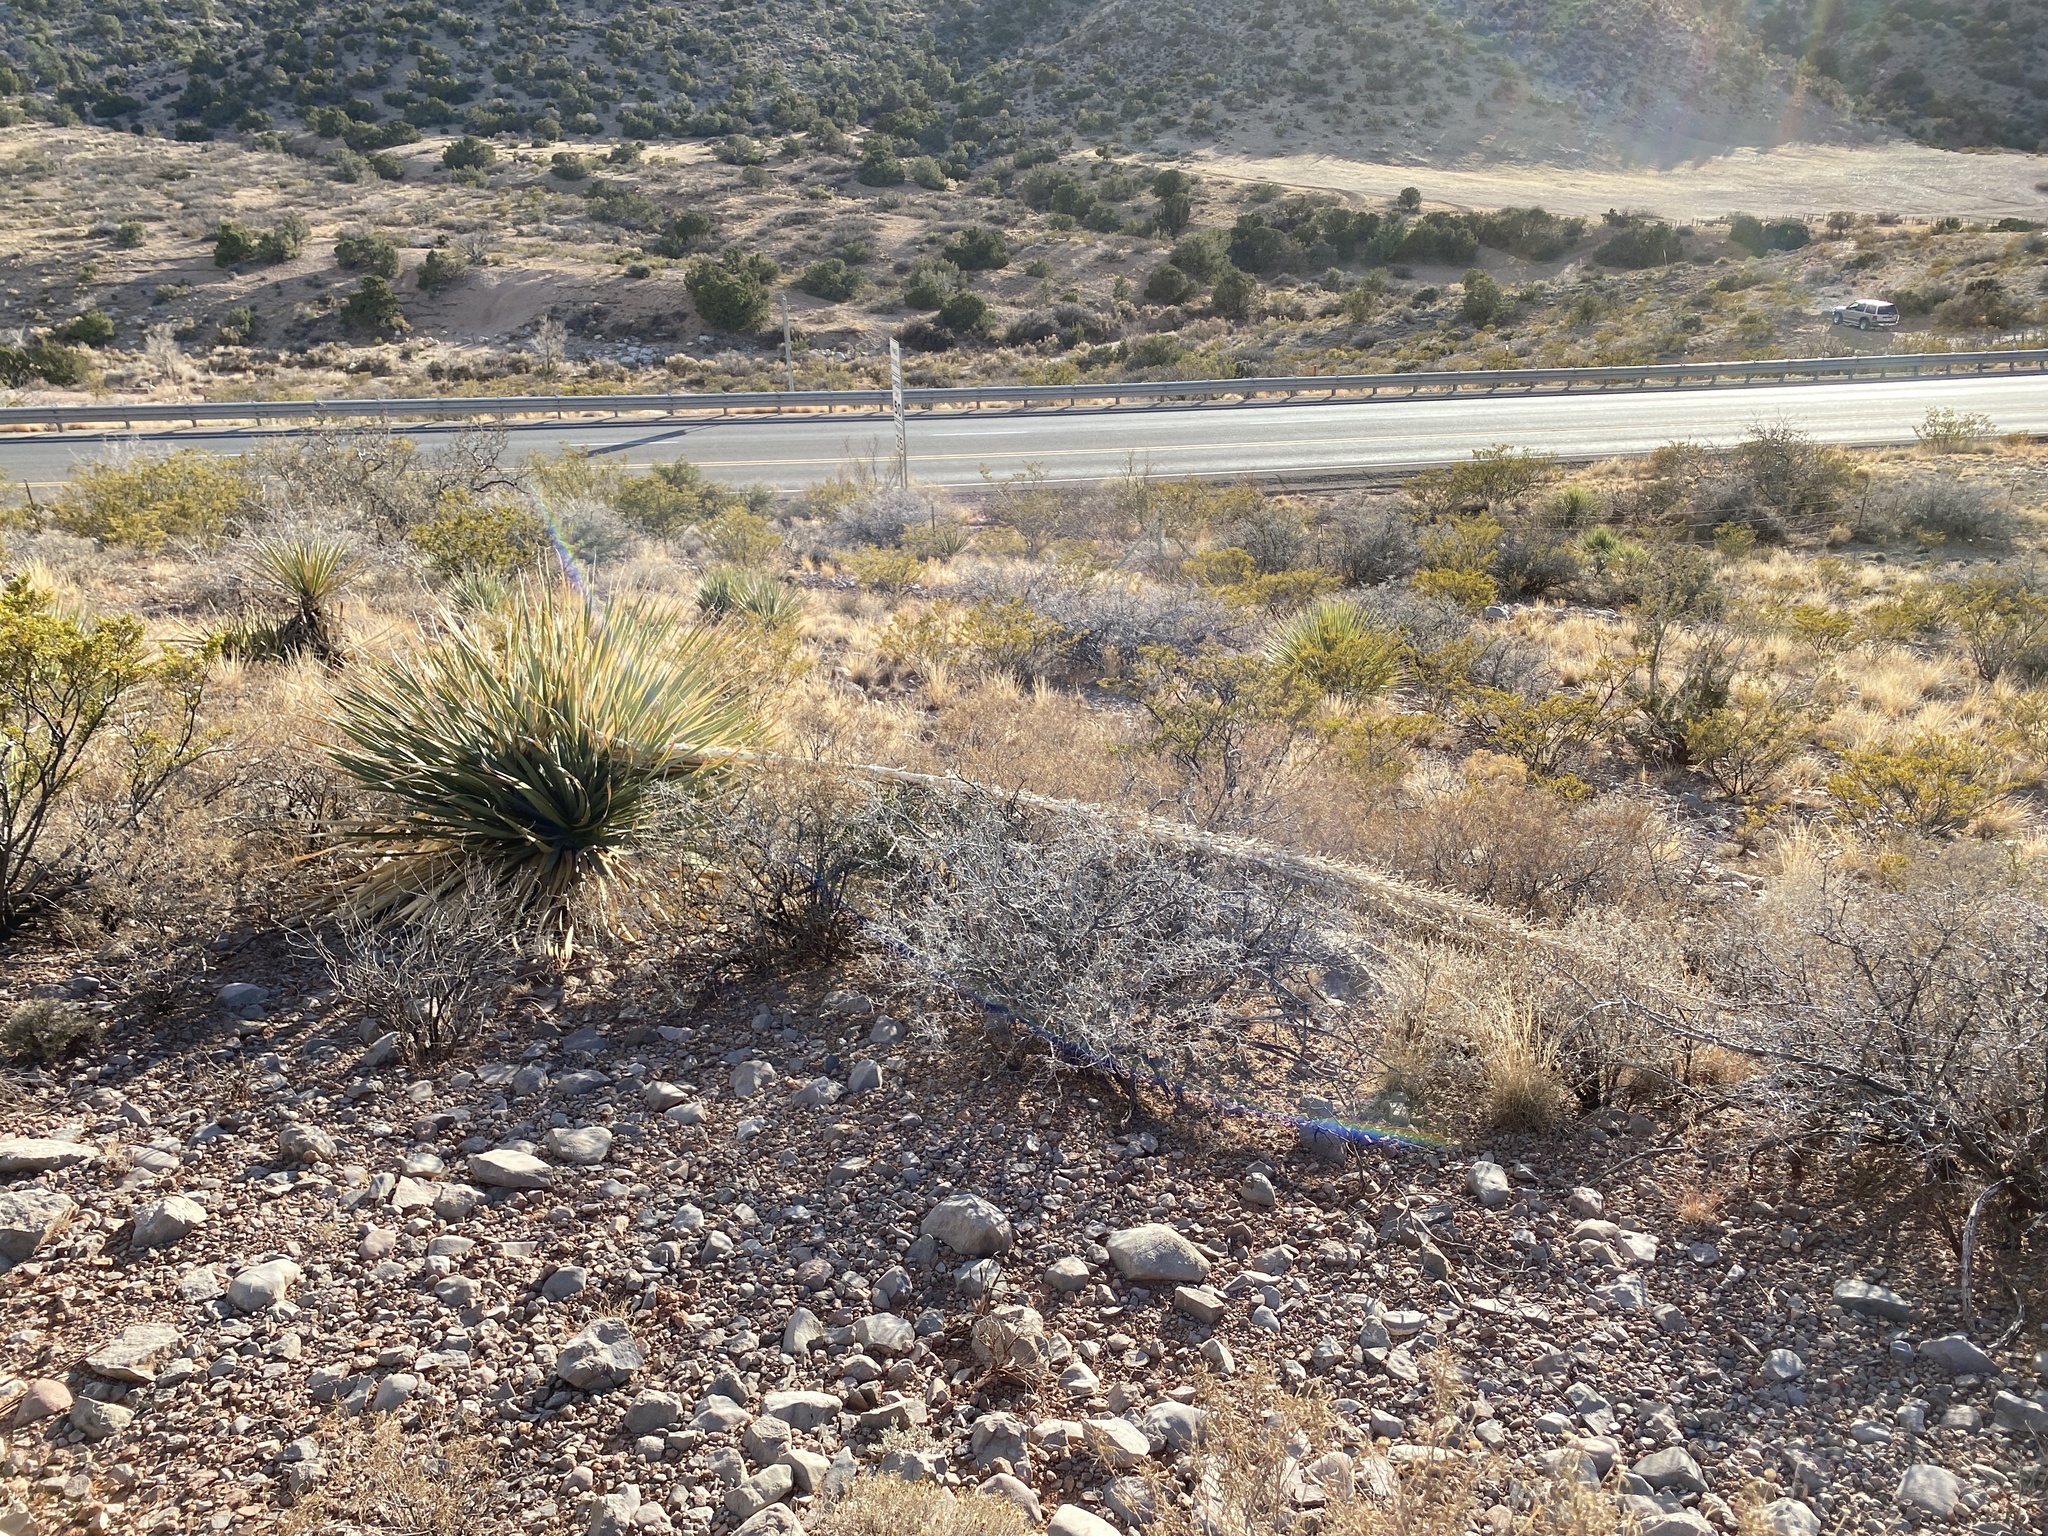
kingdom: Plantae
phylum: Tracheophyta
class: Liliopsida
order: Asparagales
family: Asparagaceae
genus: Dasylirion
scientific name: Dasylirion wheeleri
